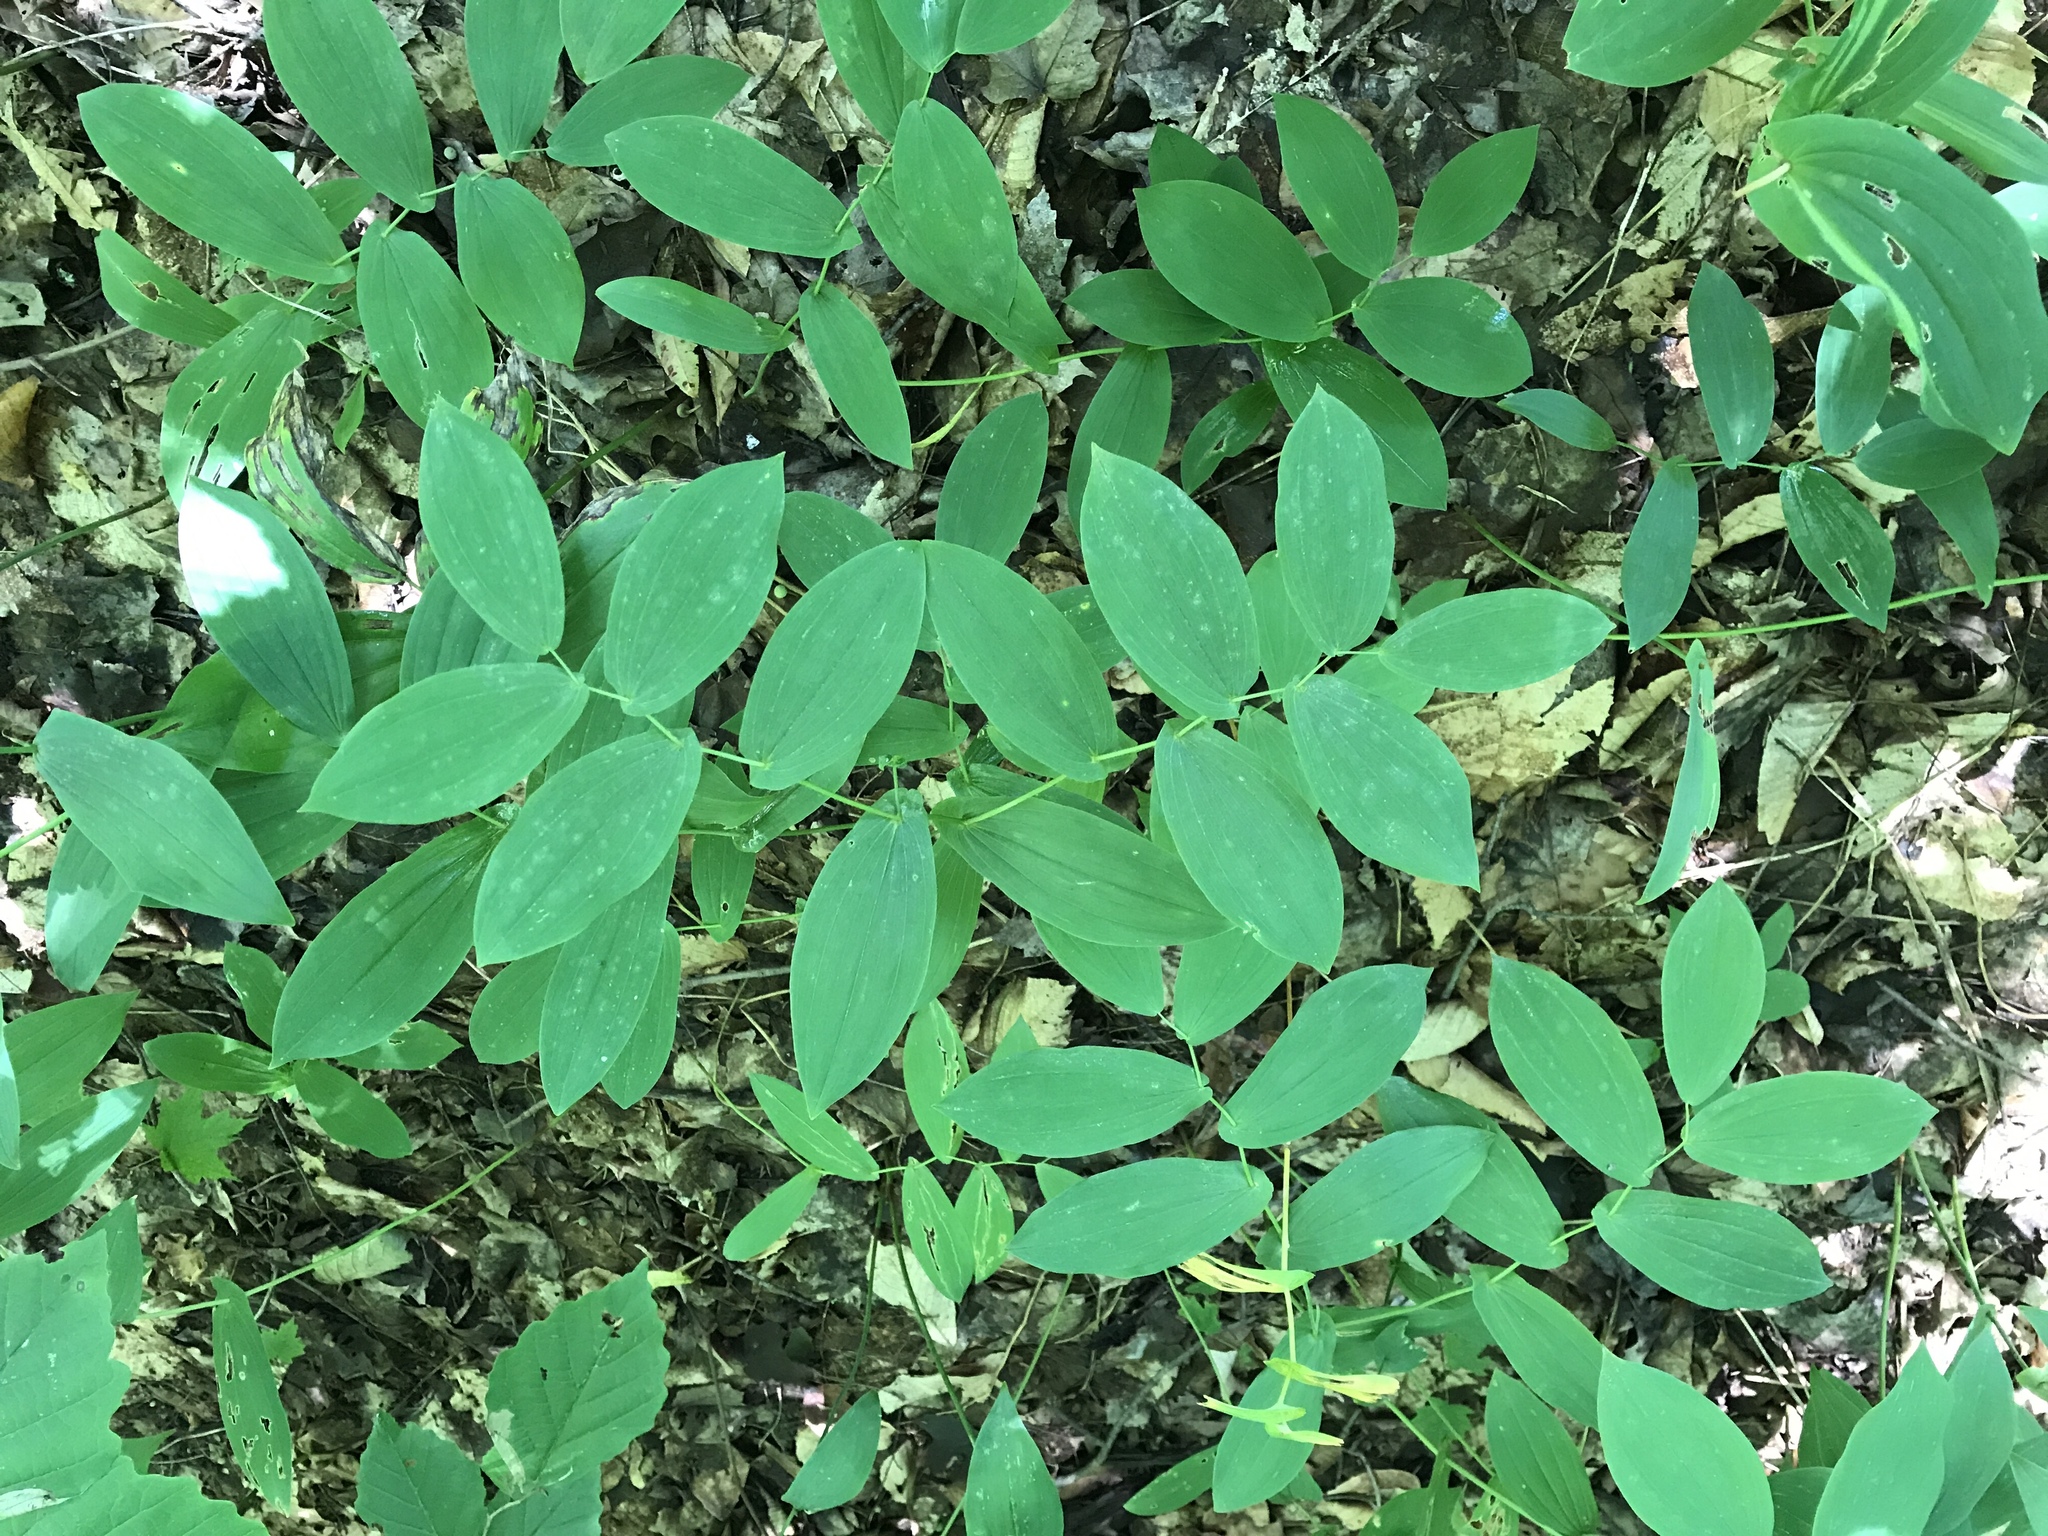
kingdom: Plantae
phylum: Tracheophyta
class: Liliopsida
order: Liliales
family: Colchicaceae
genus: Uvularia
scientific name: Uvularia grandiflora
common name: Bellwort
